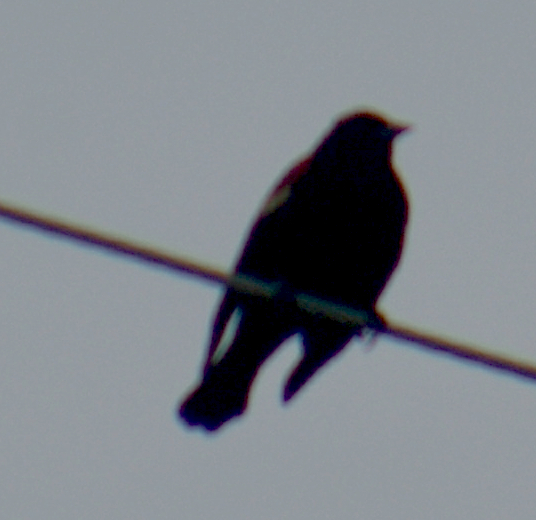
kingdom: Animalia
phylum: Chordata
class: Aves
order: Passeriformes
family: Icteridae
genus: Agelaius
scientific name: Agelaius phoeniceus
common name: Red-winged blackbird
